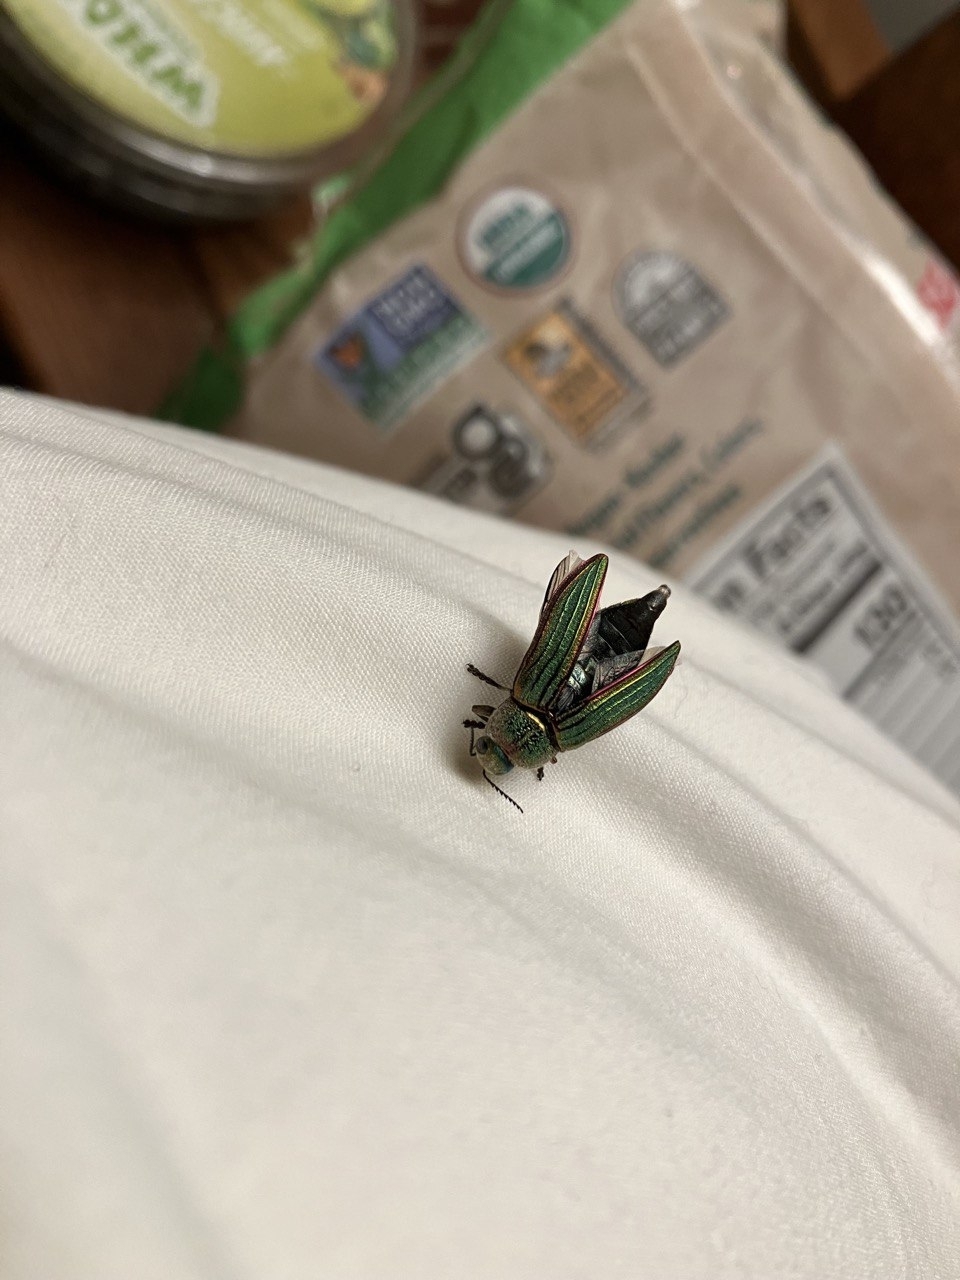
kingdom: Animalia
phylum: Arthropoda
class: Insecta
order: Coleoptera
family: Buprestidae
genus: Buprestis
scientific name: Buprestis aurulenta
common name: Golden buprestid
